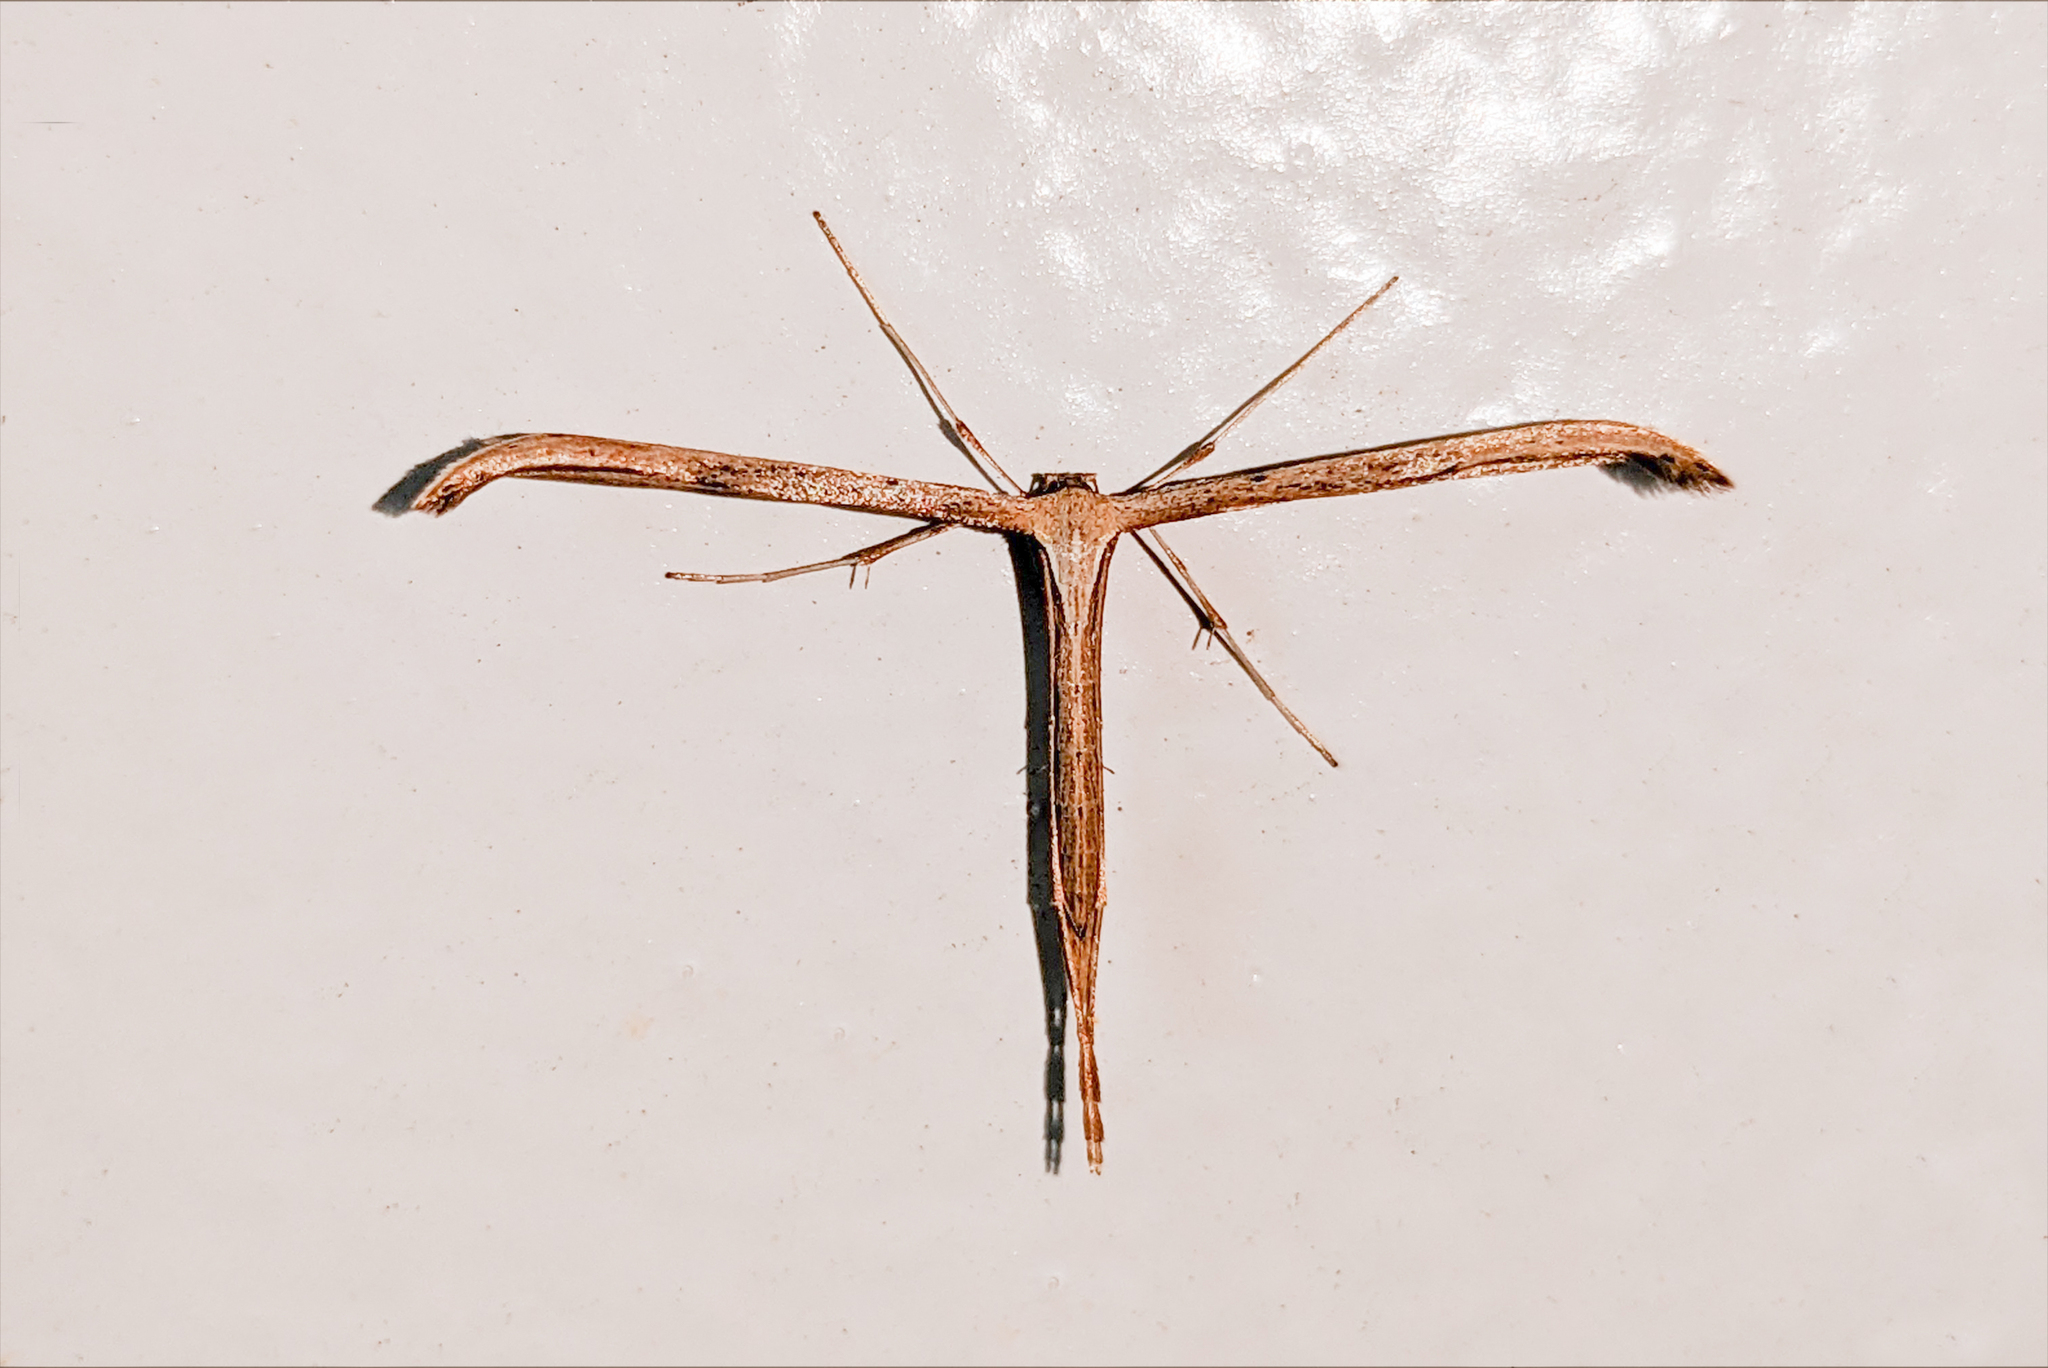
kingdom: Animalia
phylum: Arthropoda
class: Insecta
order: Lepidoptera
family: Pterophoridae
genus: Emmelina
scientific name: Emmelina monodactyla
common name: Common plume
